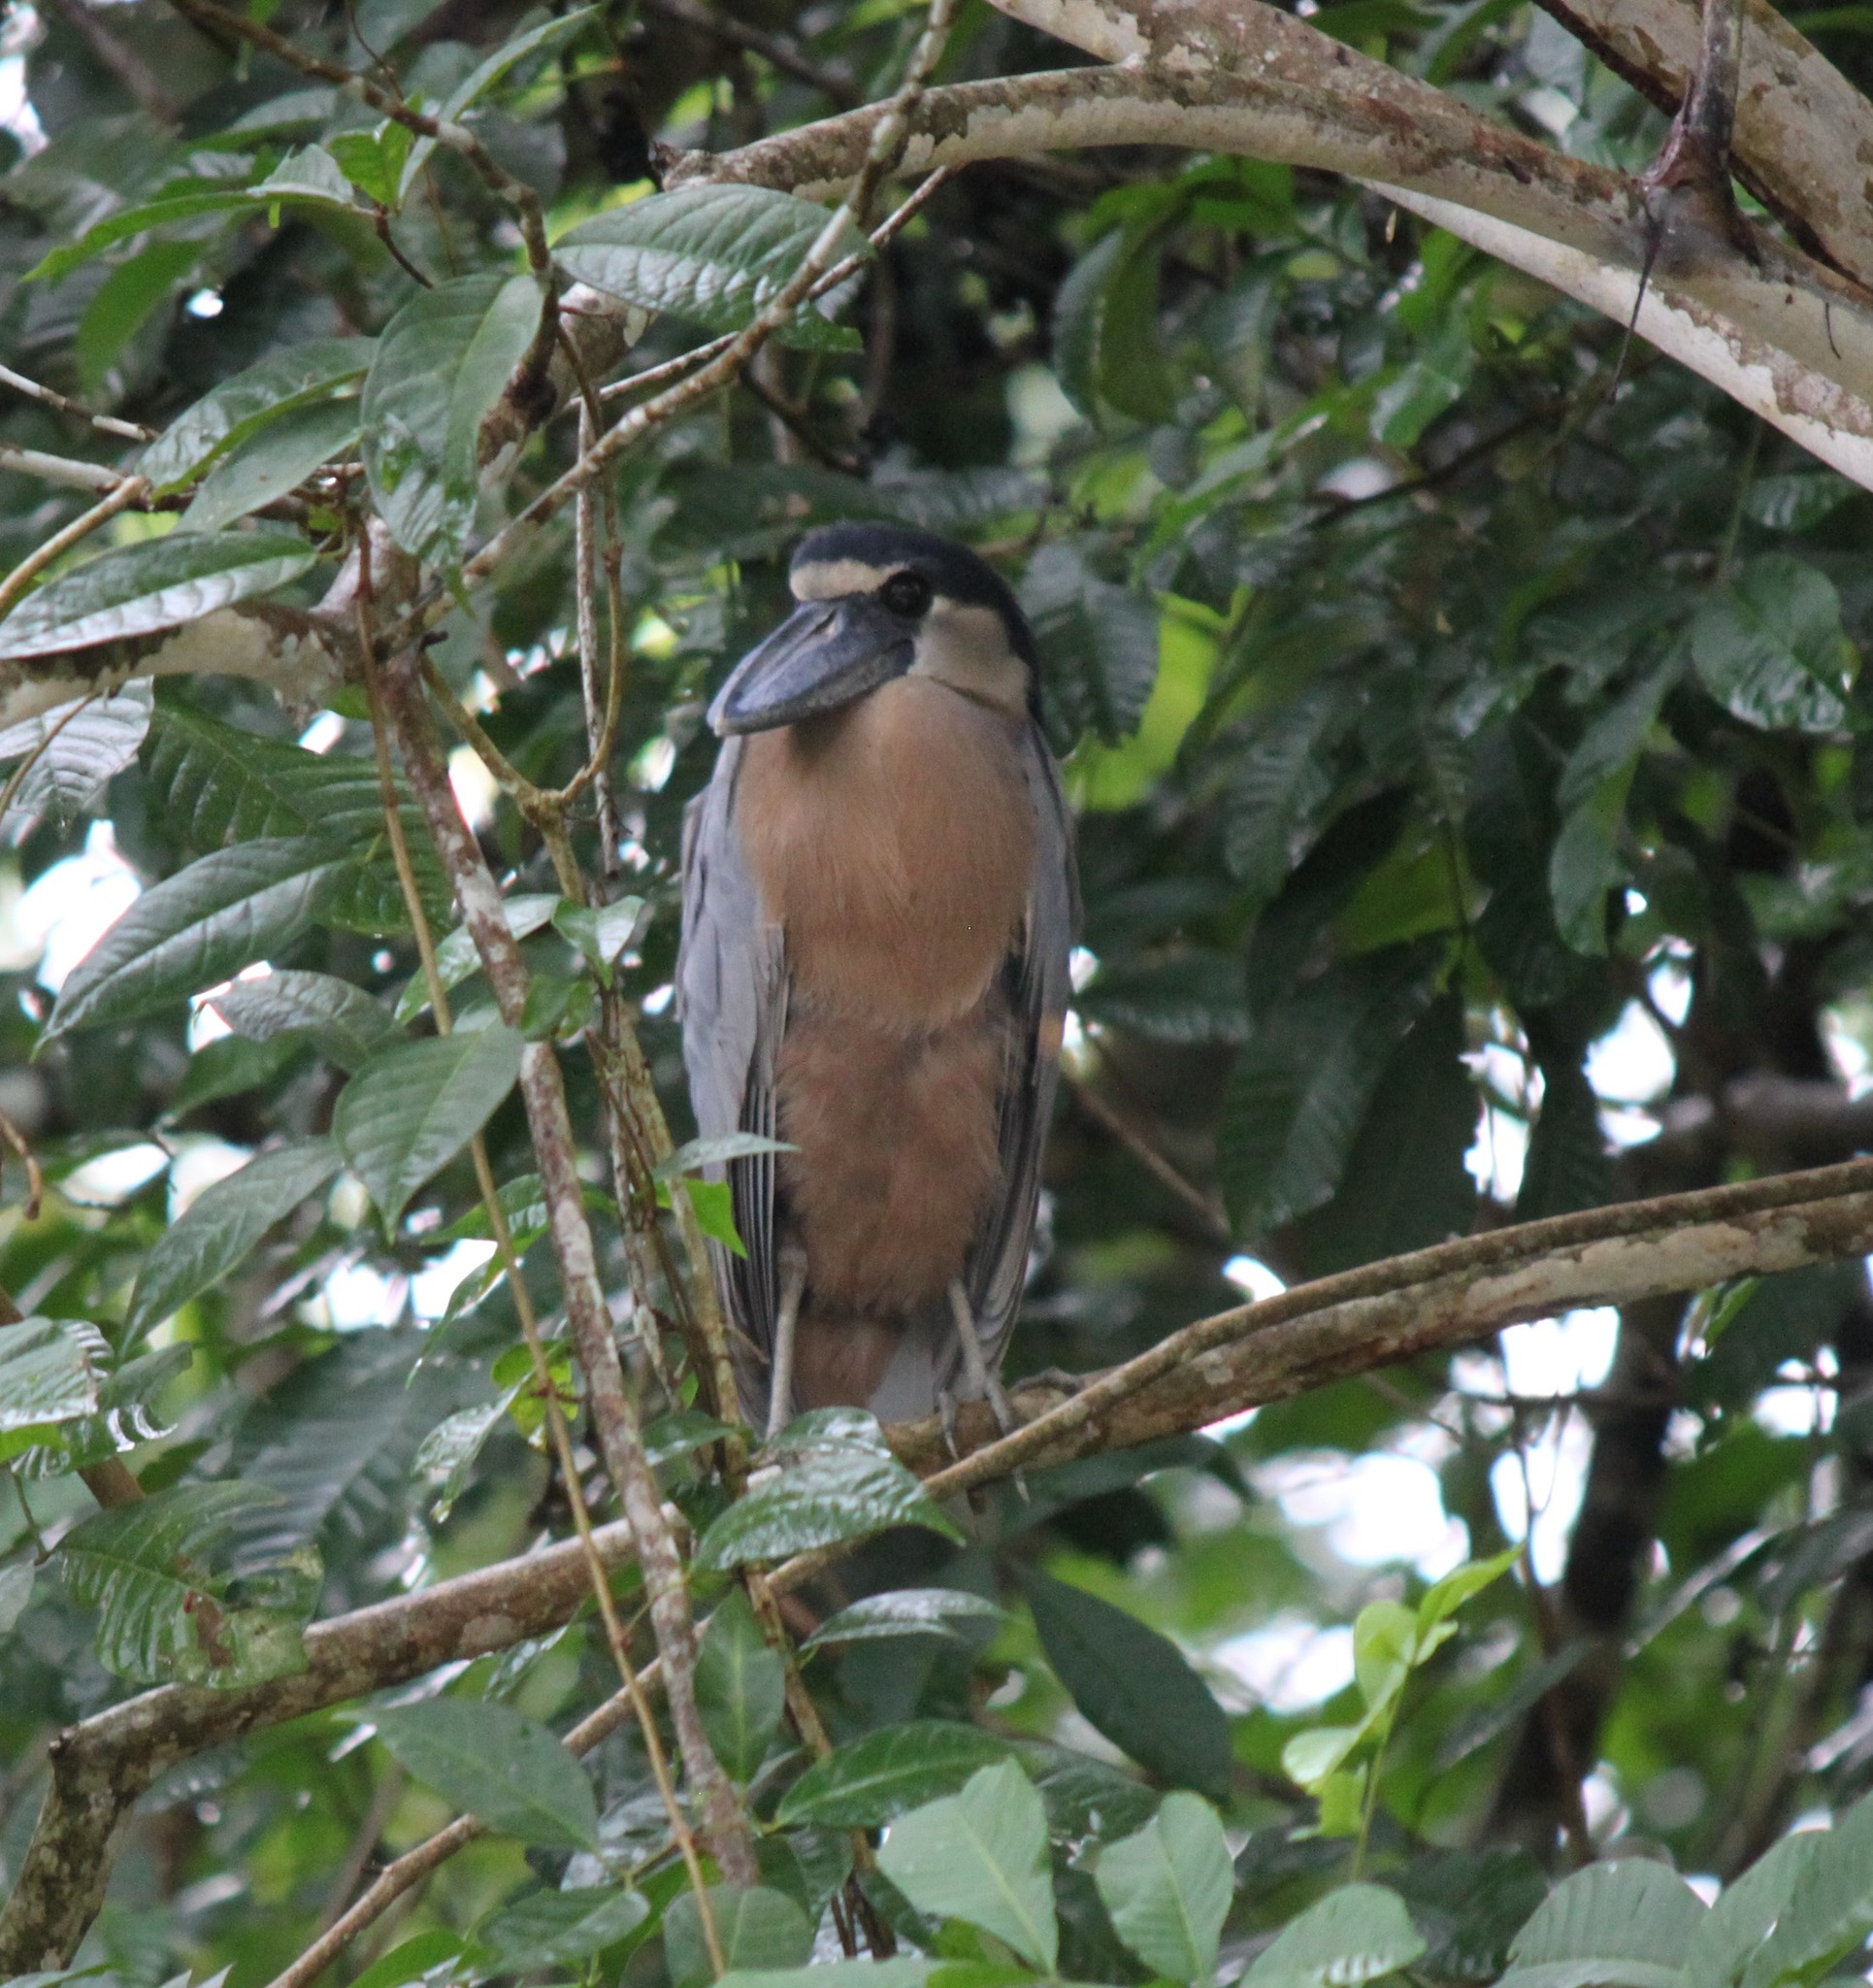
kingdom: Animalia
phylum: Chordata
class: Aves
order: Pelecaniformes
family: Ardeidae
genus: Cochlearius
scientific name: Cochlearius cochlearius
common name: Boat-billed heron
